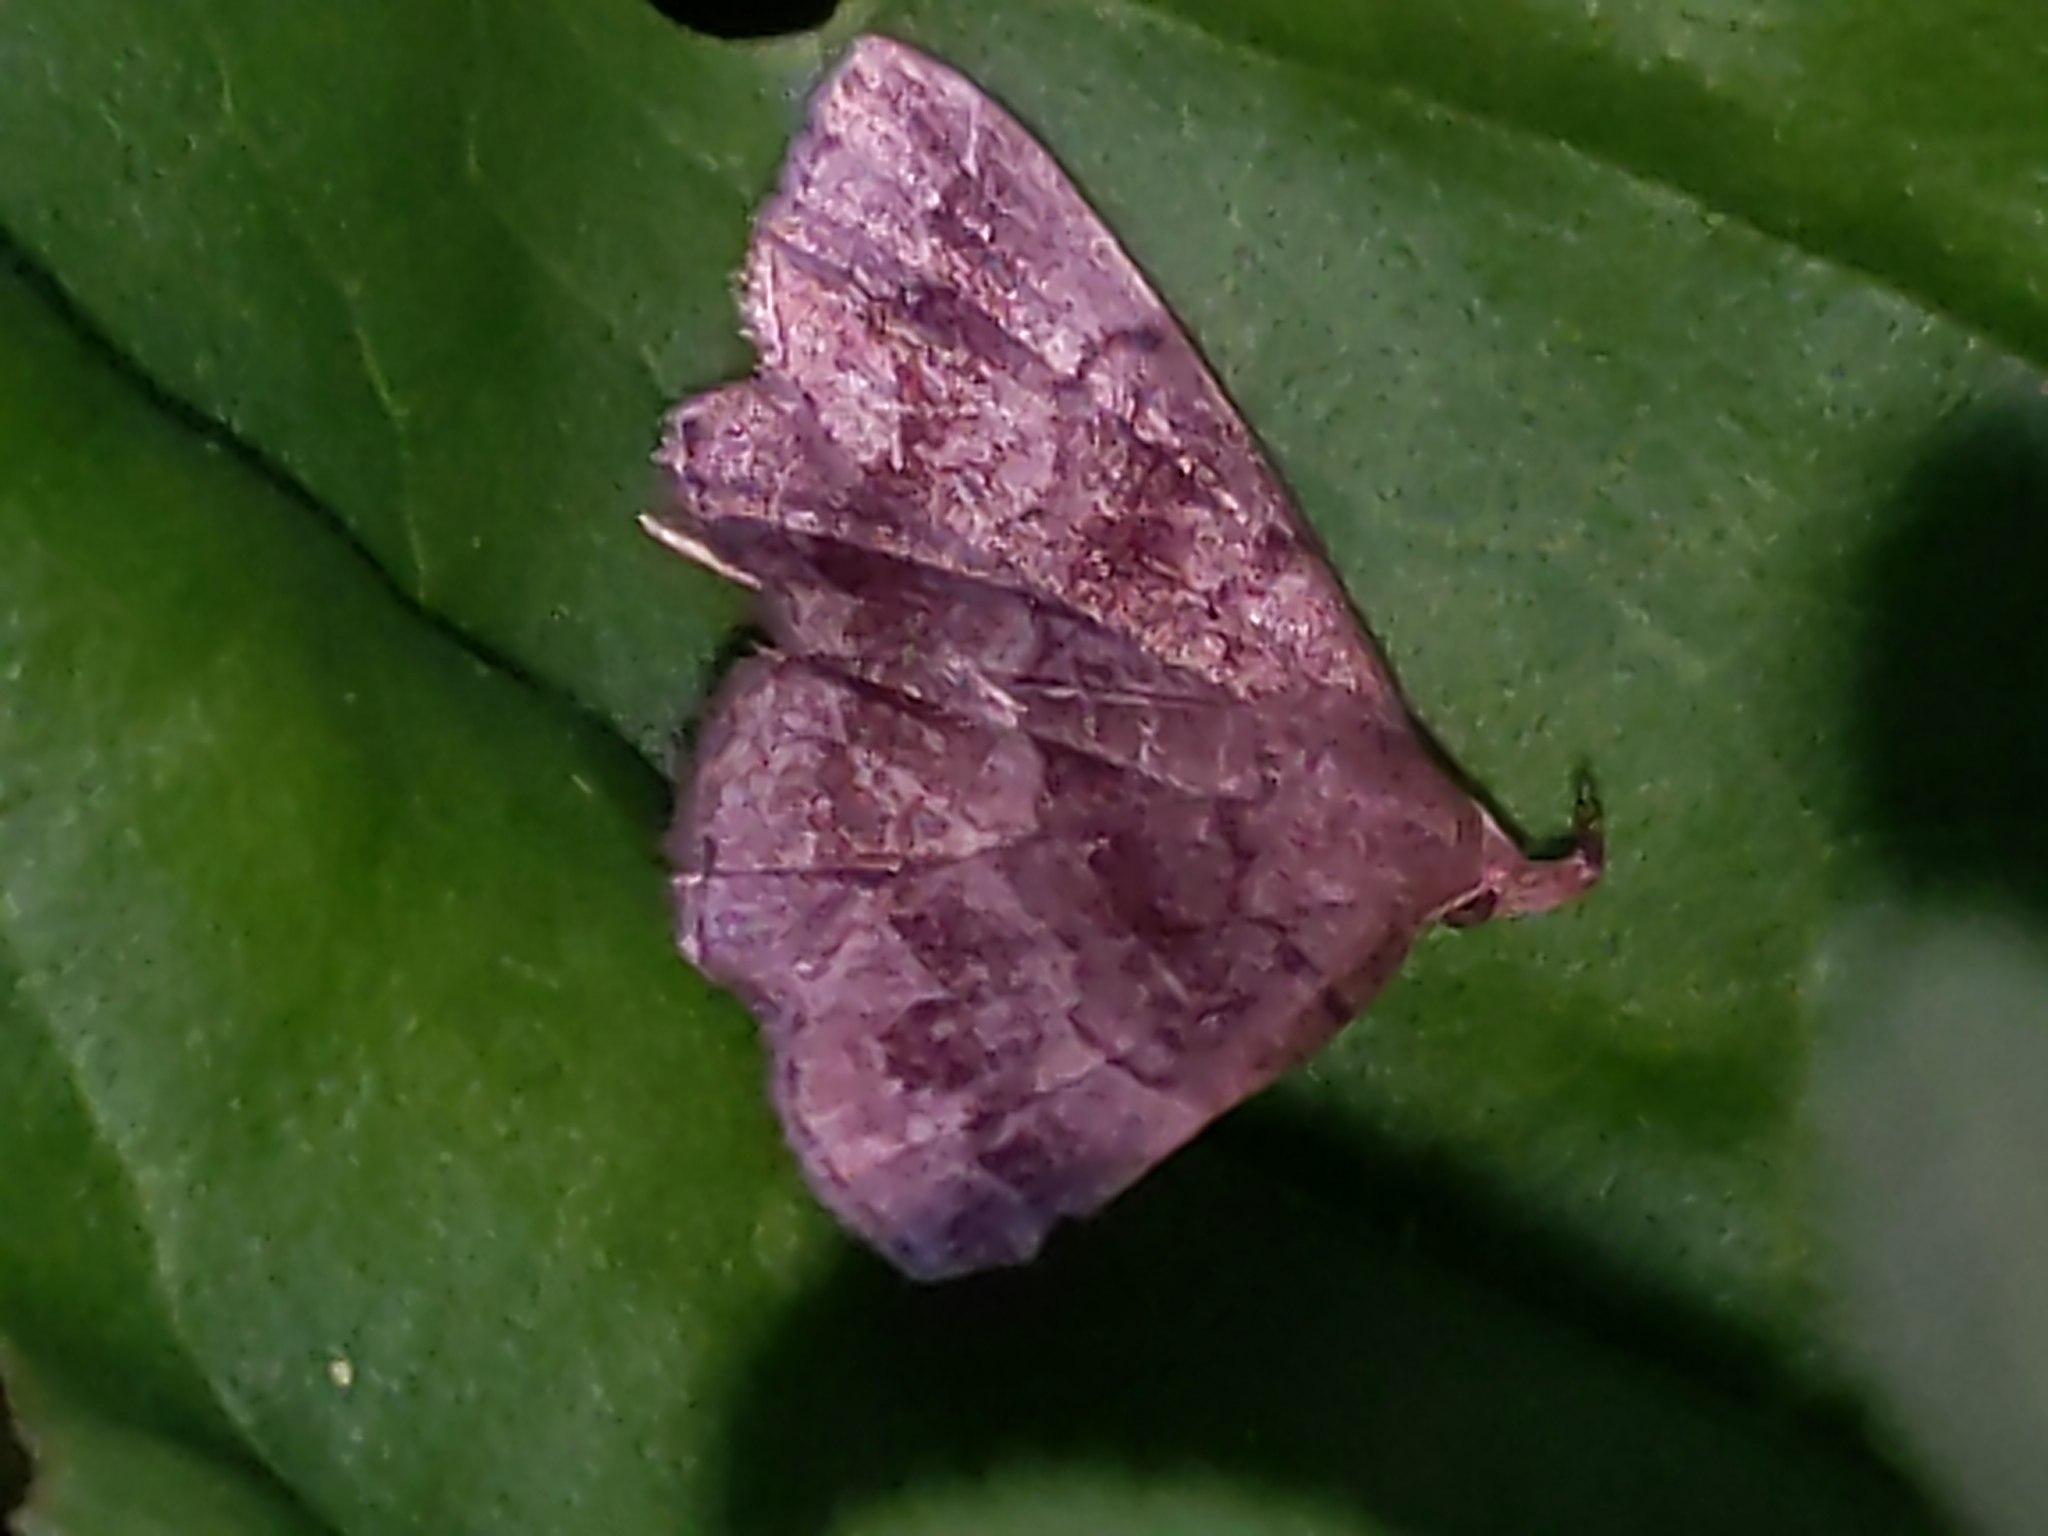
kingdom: Animalia
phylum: Arthropoda
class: Insecta
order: Lepidoptera
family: Erebidae
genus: Phalaenostola
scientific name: Phalaenostola larentioides
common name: Black-banded owlet
